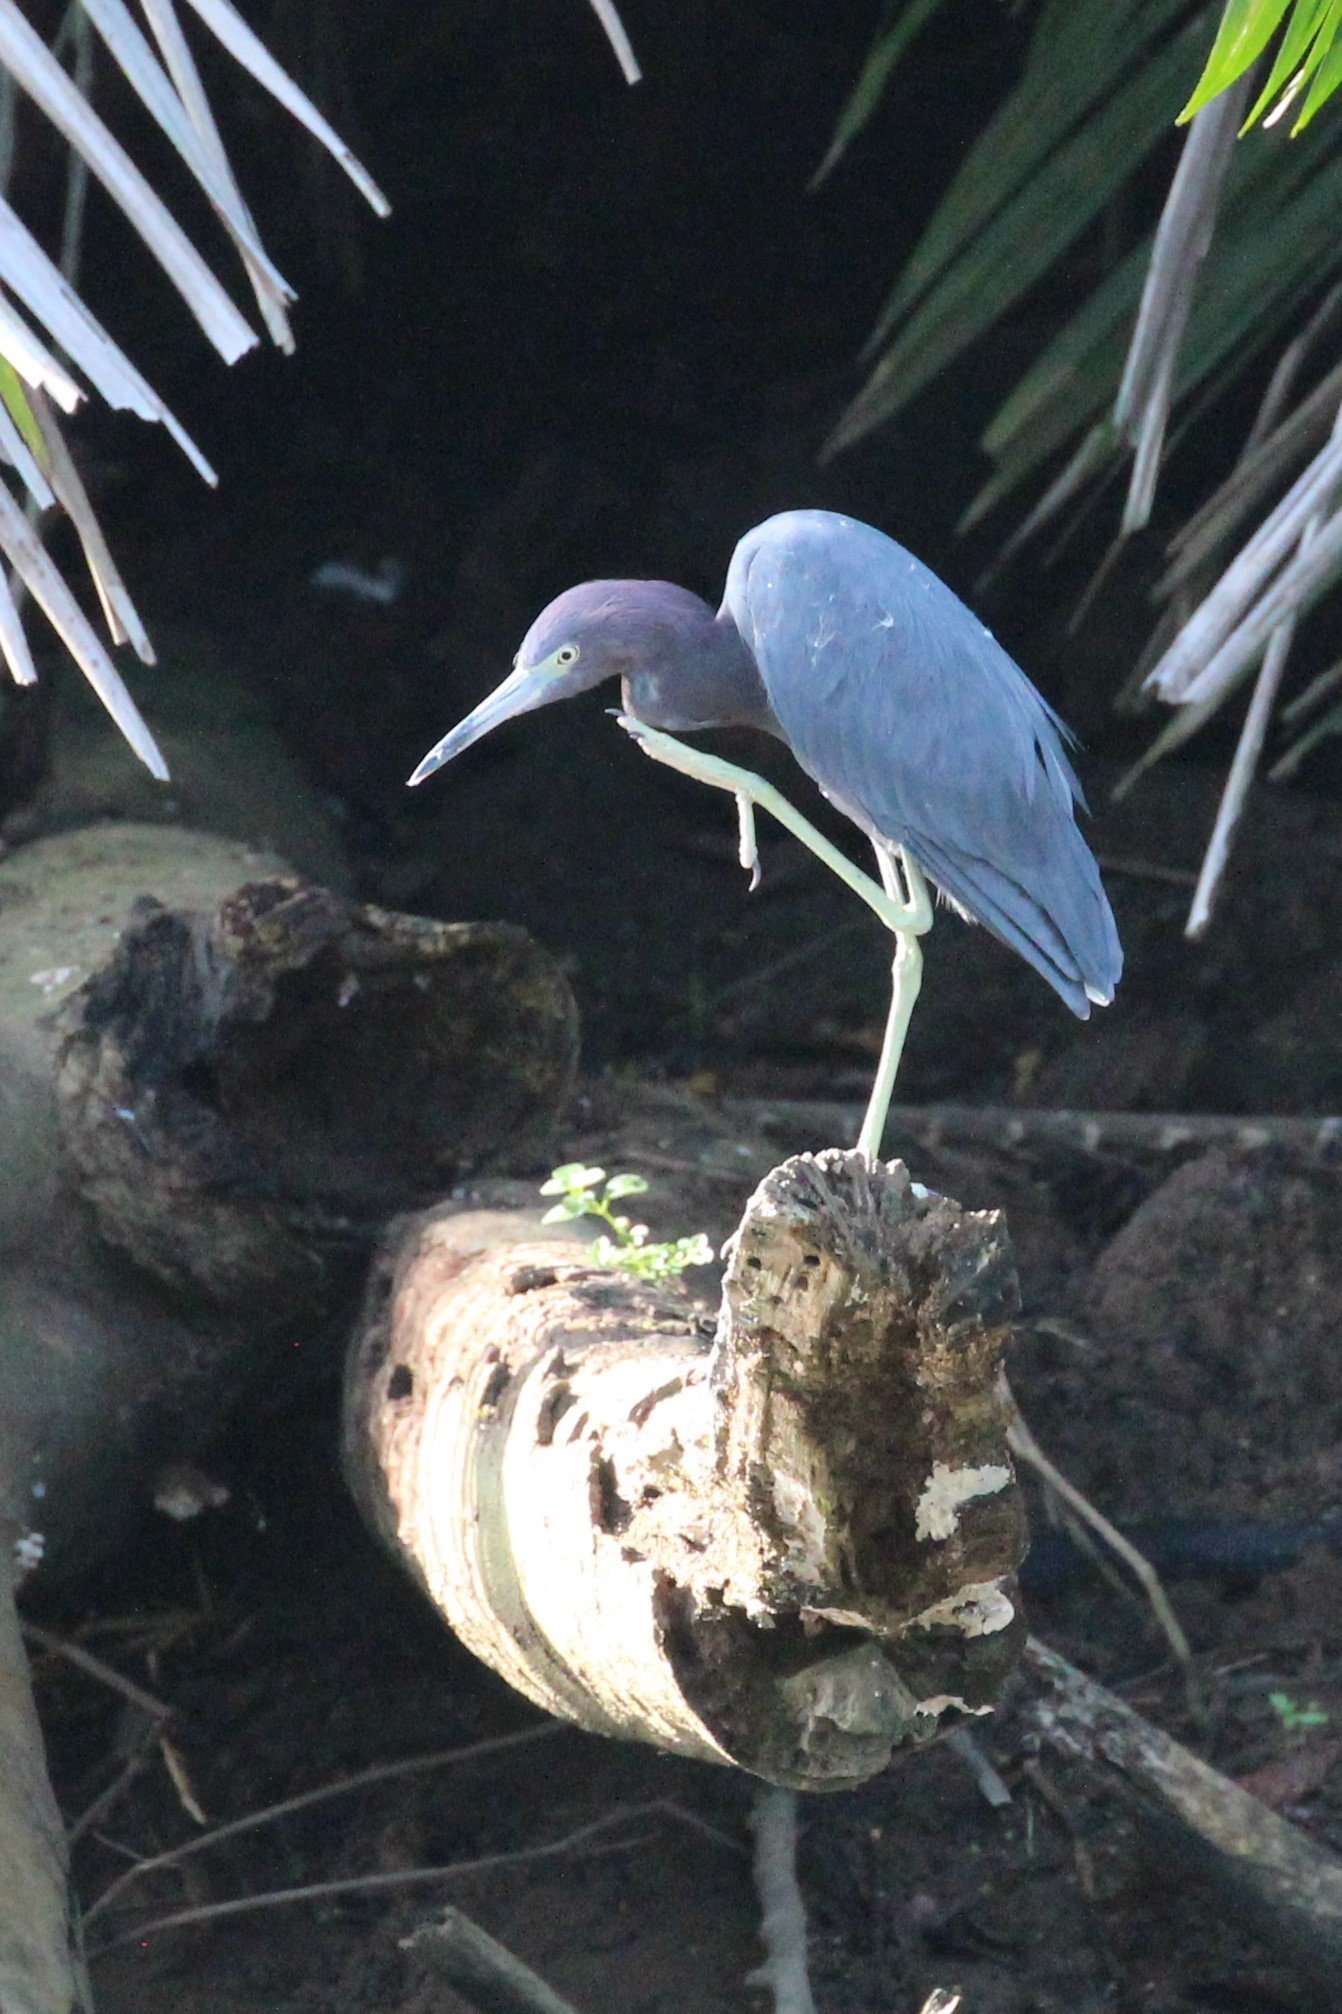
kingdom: Animalia
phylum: Chordata
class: Aves
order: Pelecaniformes
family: Ardeidae
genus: Egretta
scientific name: Egretta caerulea
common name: Little blue heron
